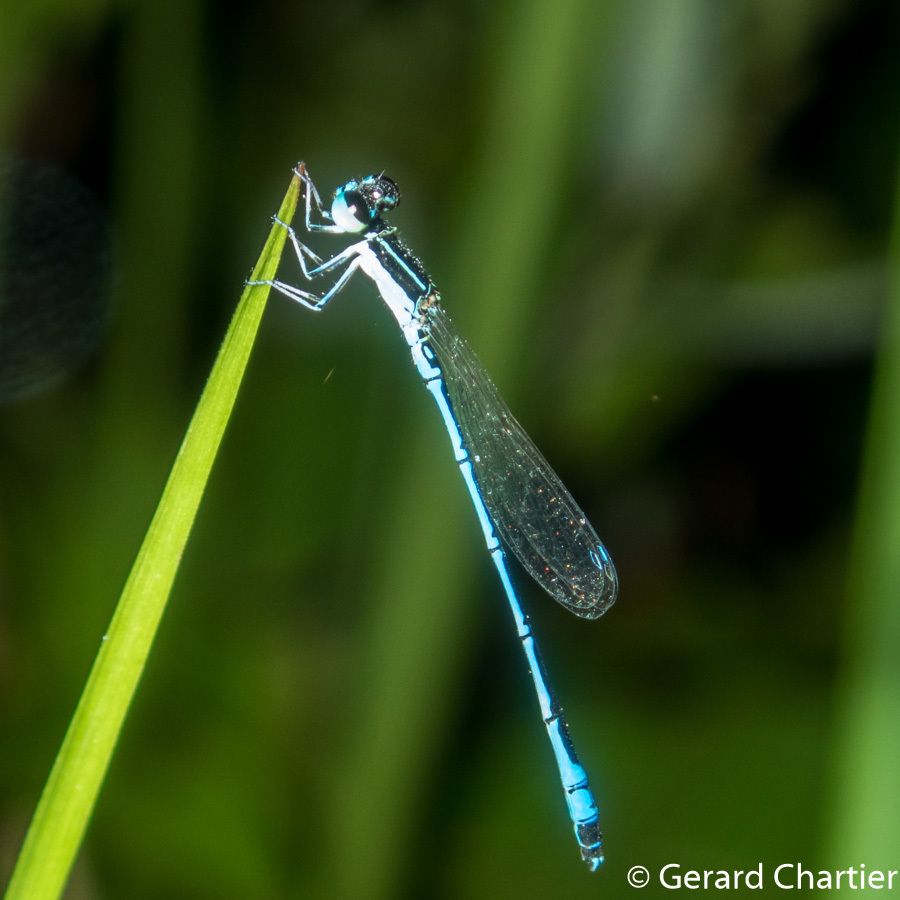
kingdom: Animalia
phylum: Arthropoda
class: Insecta
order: Odonata
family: Coenagrionidae
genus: Agriocnemis
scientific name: Agriocnemis nana
